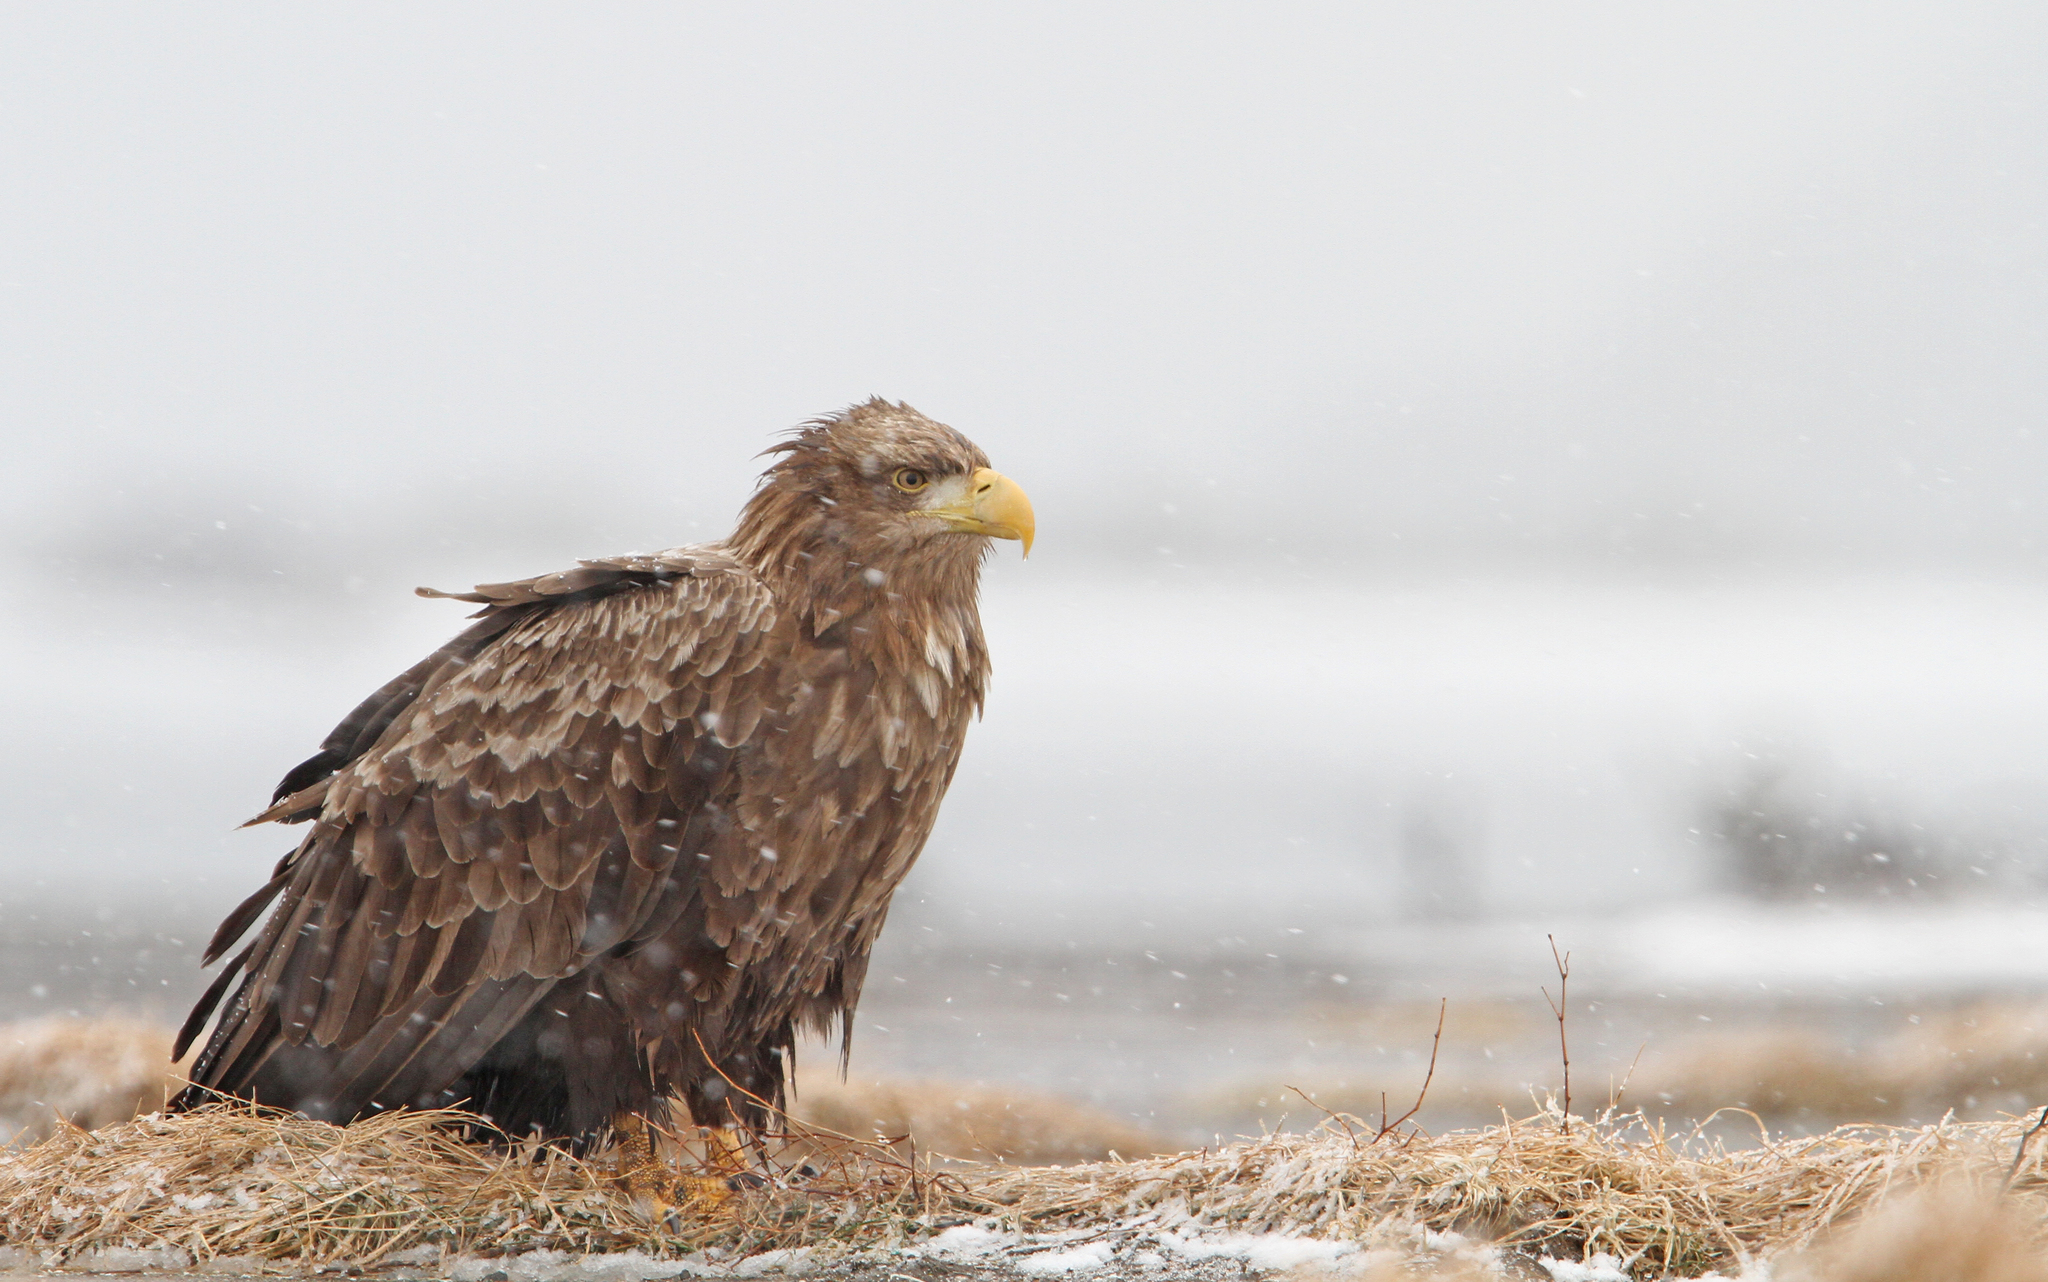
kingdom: Animalia
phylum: Chordata
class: Aves
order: Accipitriformes
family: Accipitridae
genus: Haliaeetus
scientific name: Haliaeetus albicilla
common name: White-tailed eagle
